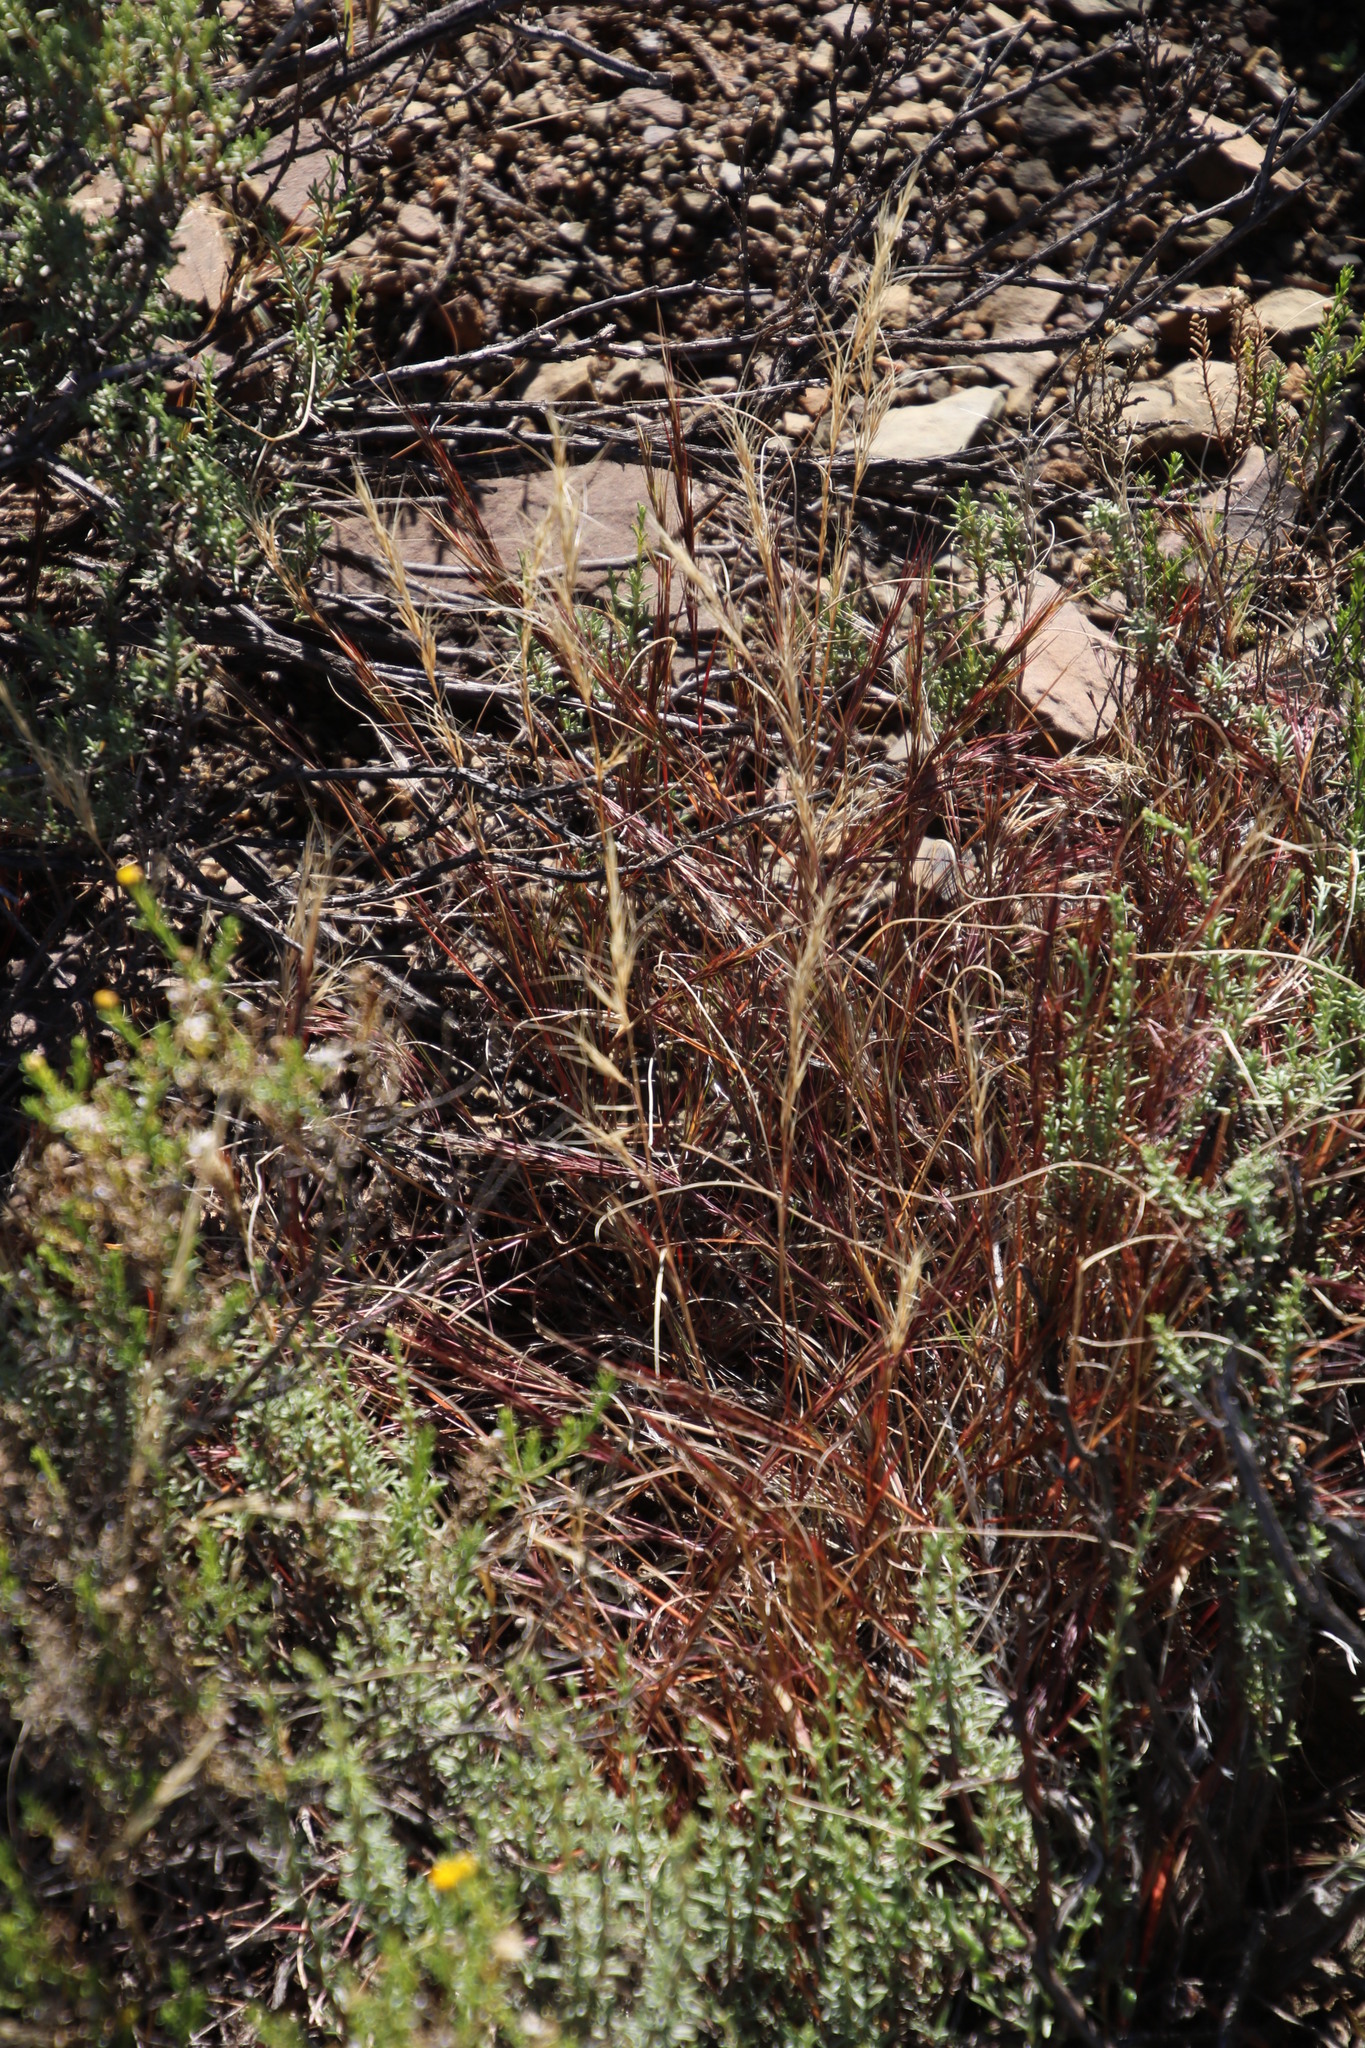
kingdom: Plantae
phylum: Tracheophyta
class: Liliopsida
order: Poales
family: Poaceae
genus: Aristida
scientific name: Aristida adscensionis
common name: Sixweeks threeawn
